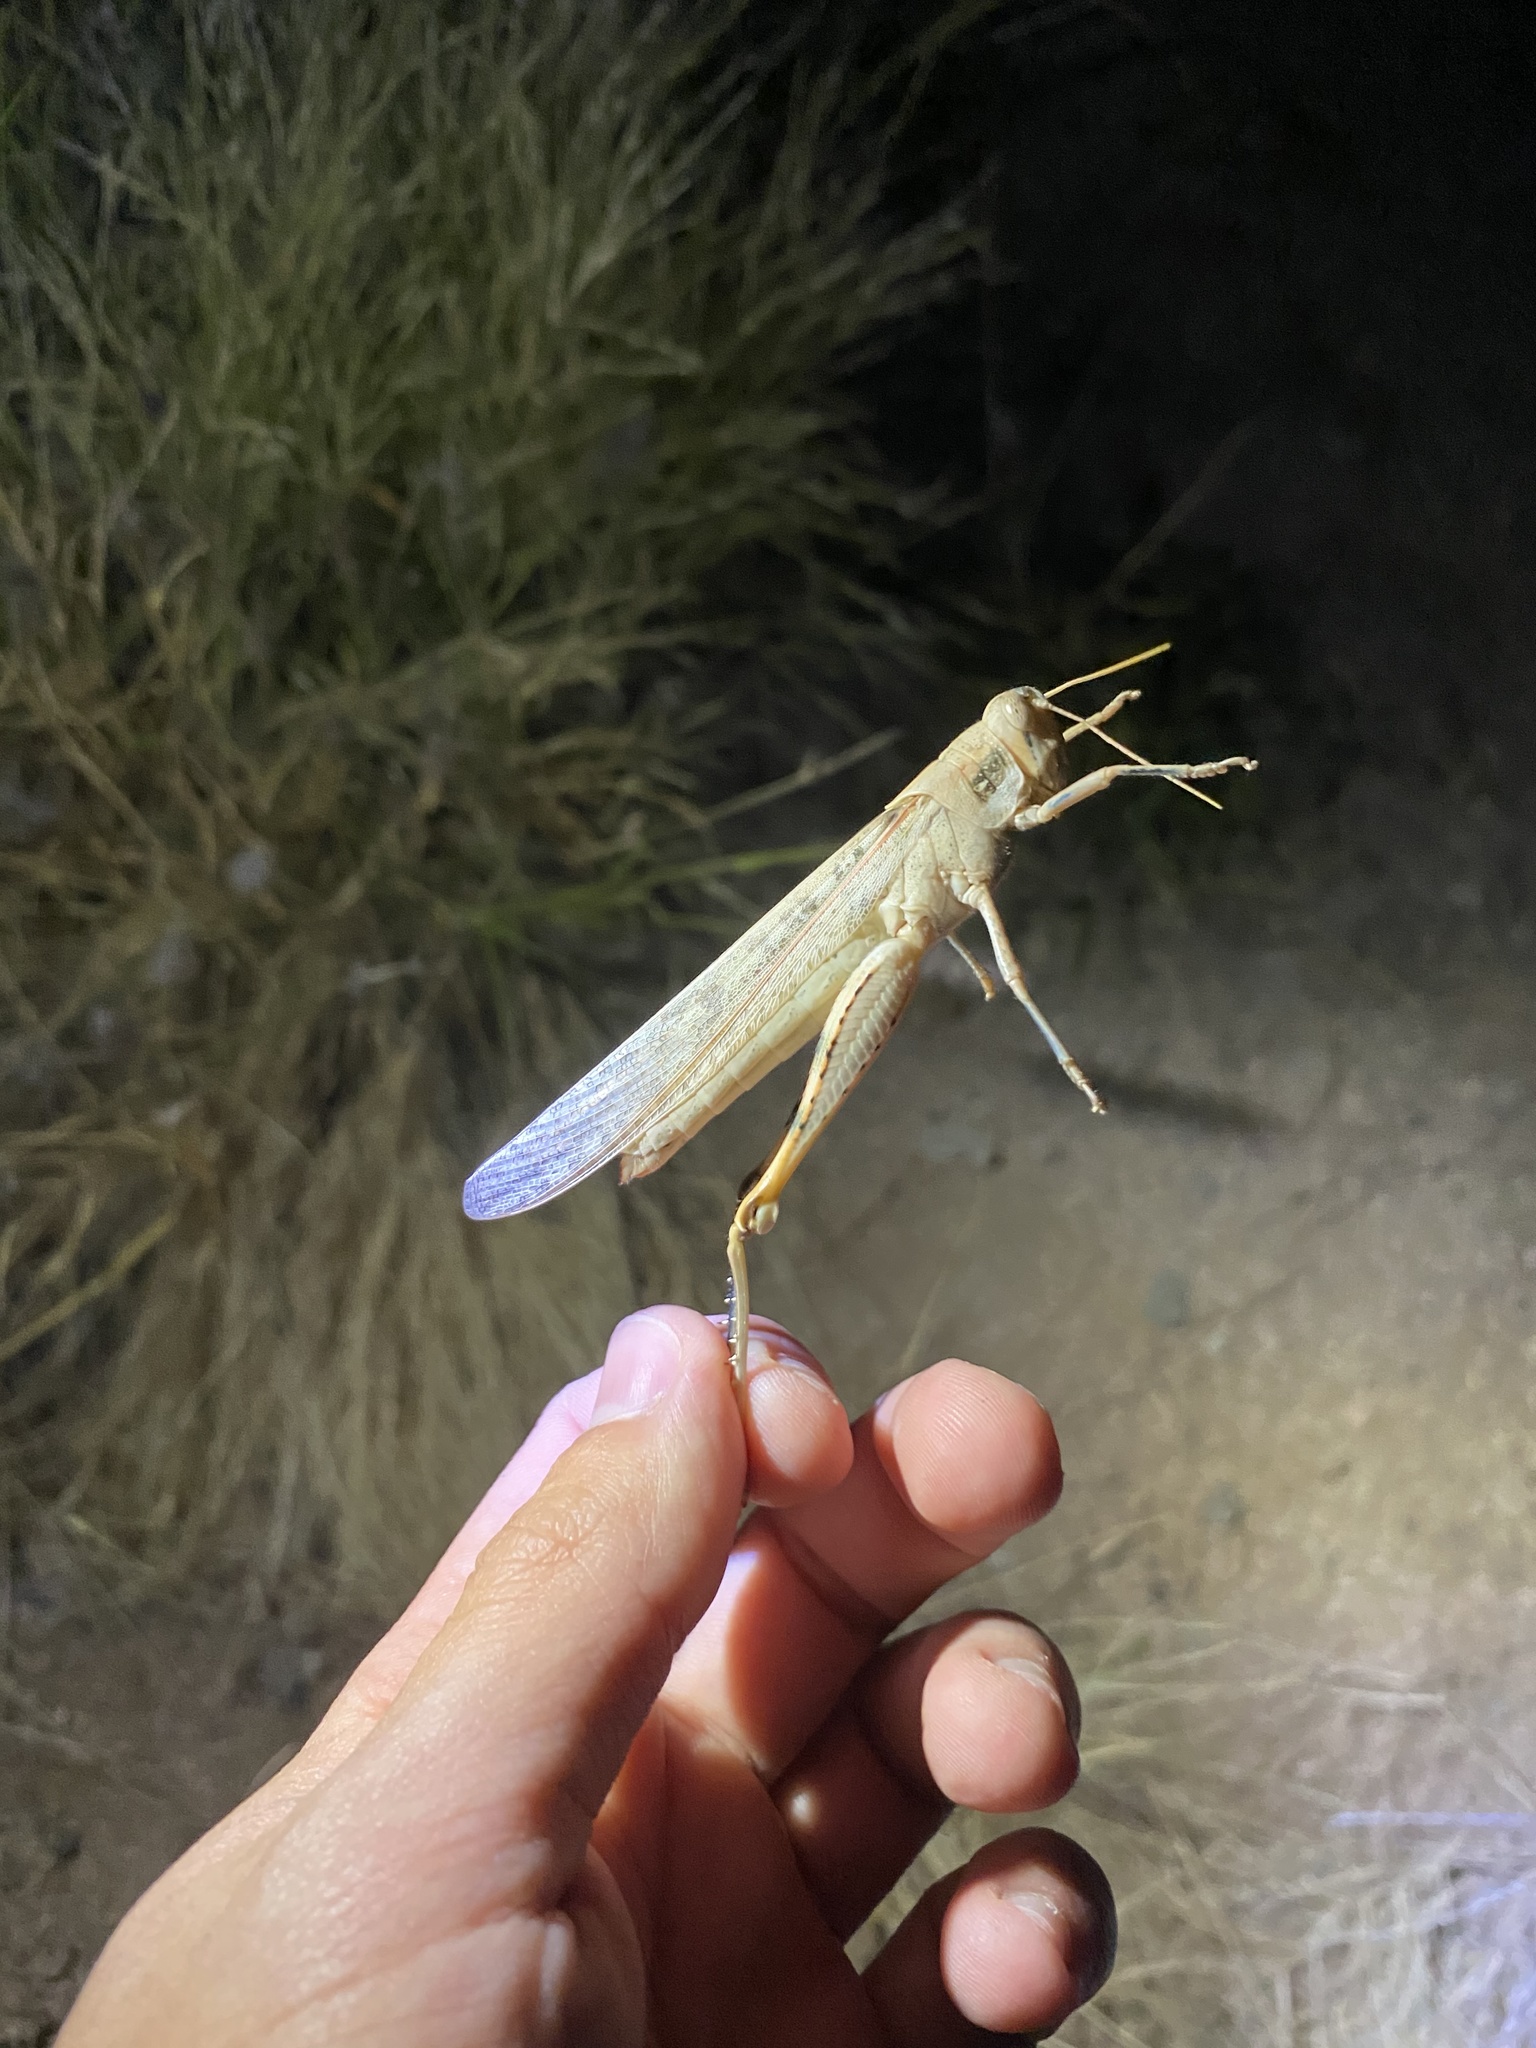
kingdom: Animalia
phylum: Arthropoda
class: Insecta
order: Orthoptera
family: Acrididae
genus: Schistocerca
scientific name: Schistocerca nitens
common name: Vagrant grasshopper
